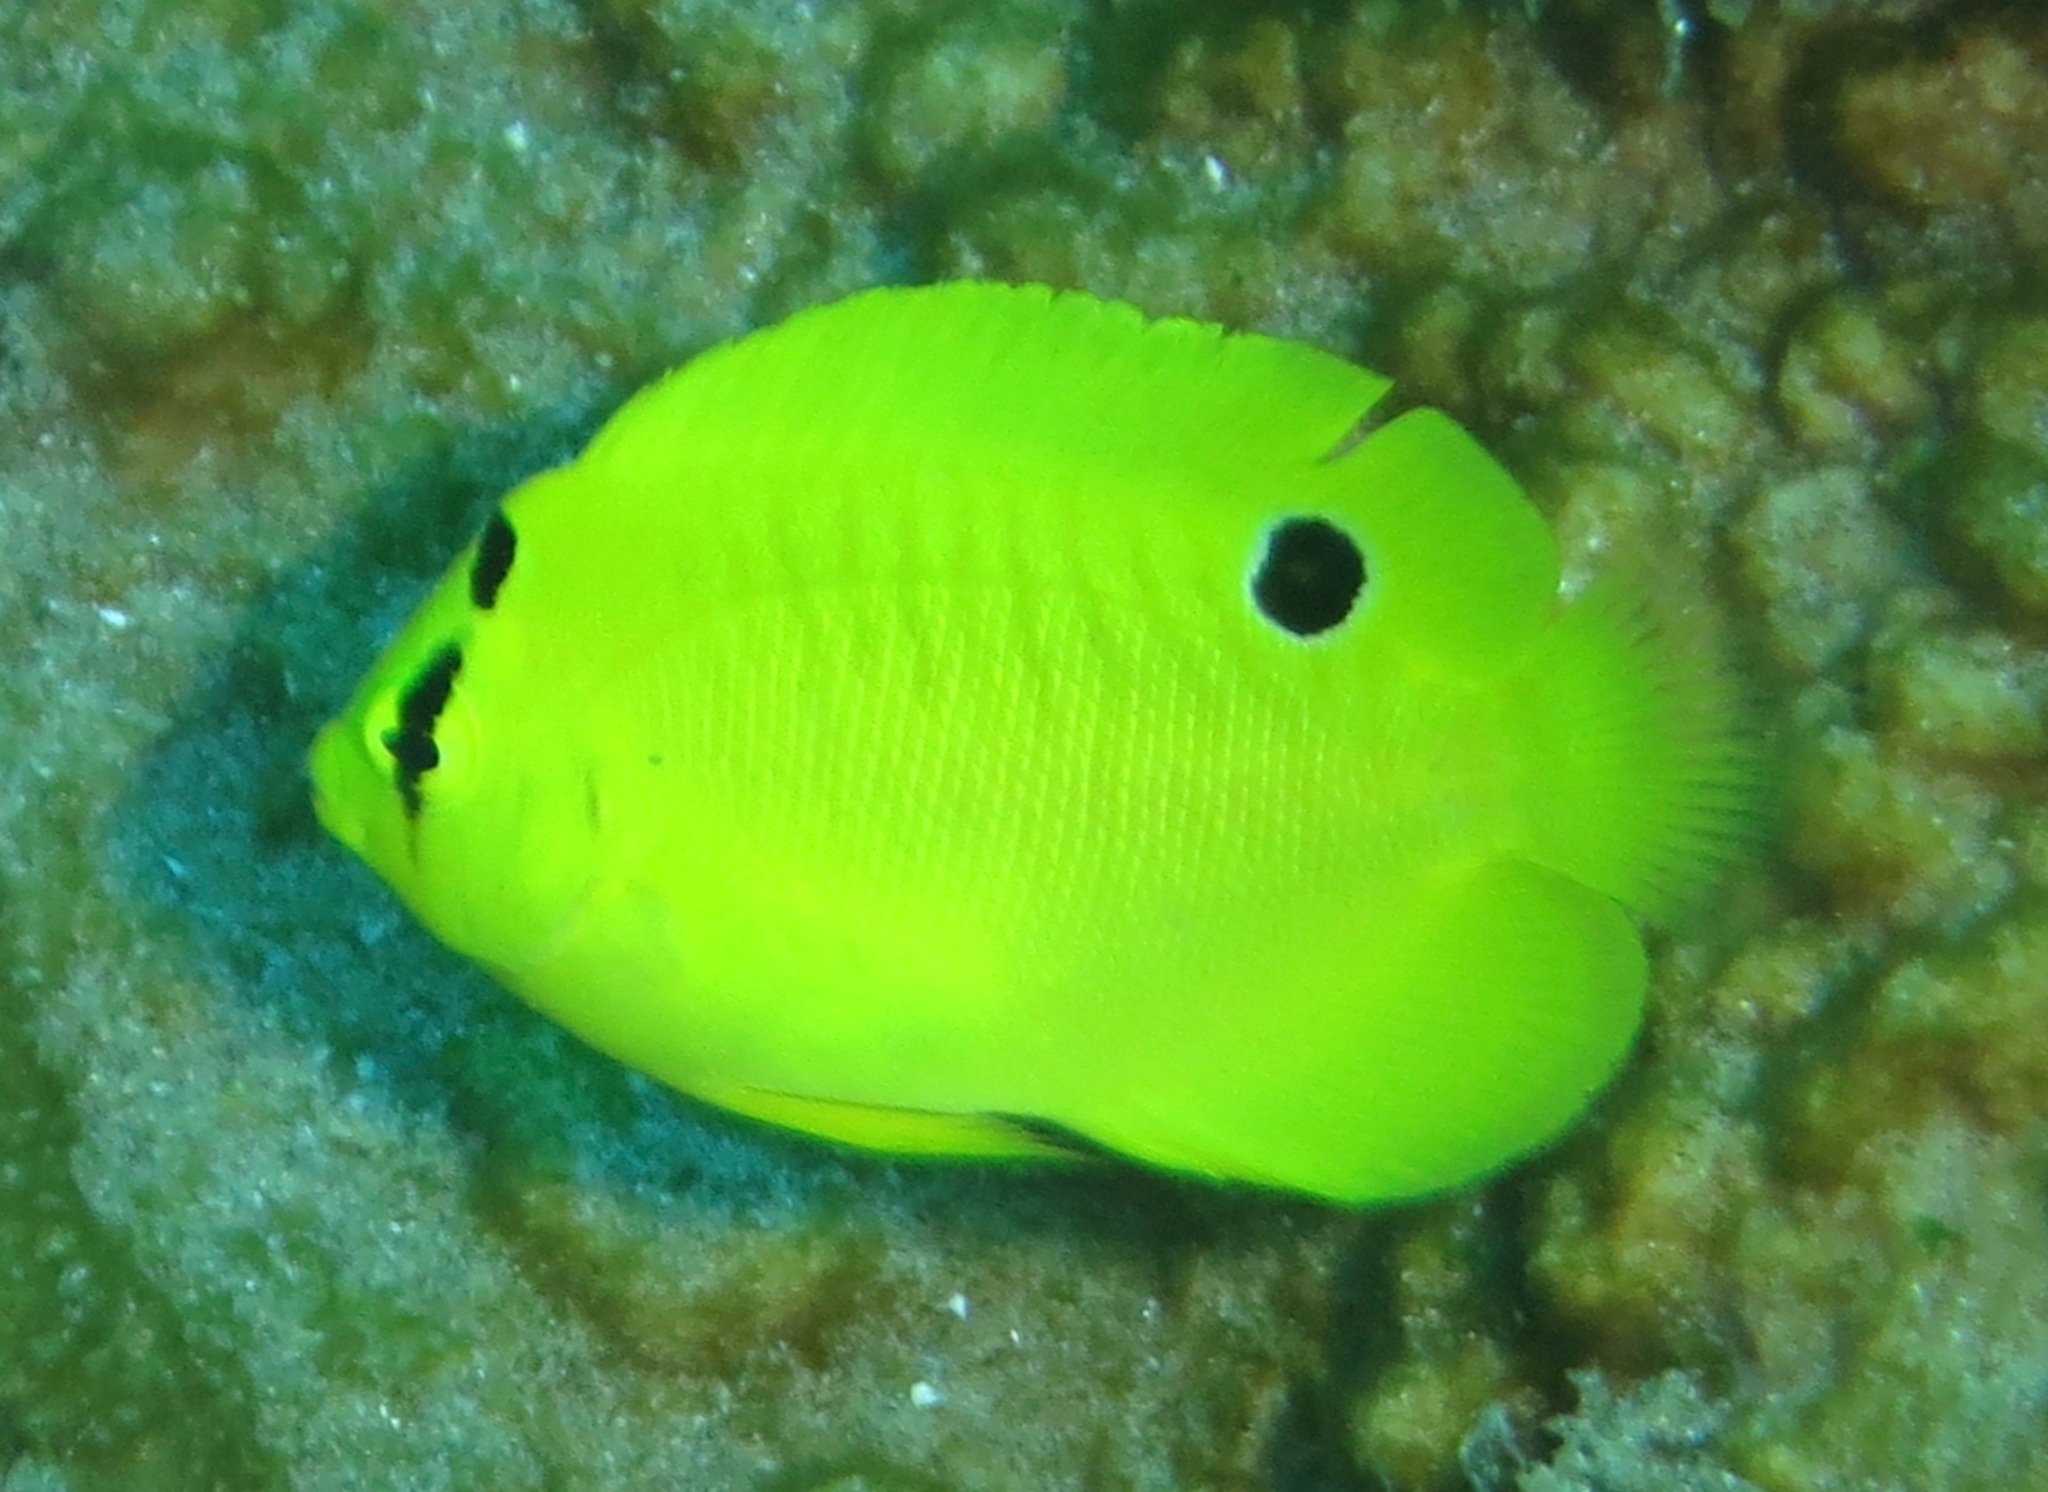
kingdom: Animalia
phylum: Chordata
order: Perciformes
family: Pomacanthidae
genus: Apolemichthys
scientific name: Apolemichthys trimaculatus
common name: Threespot angelfish
